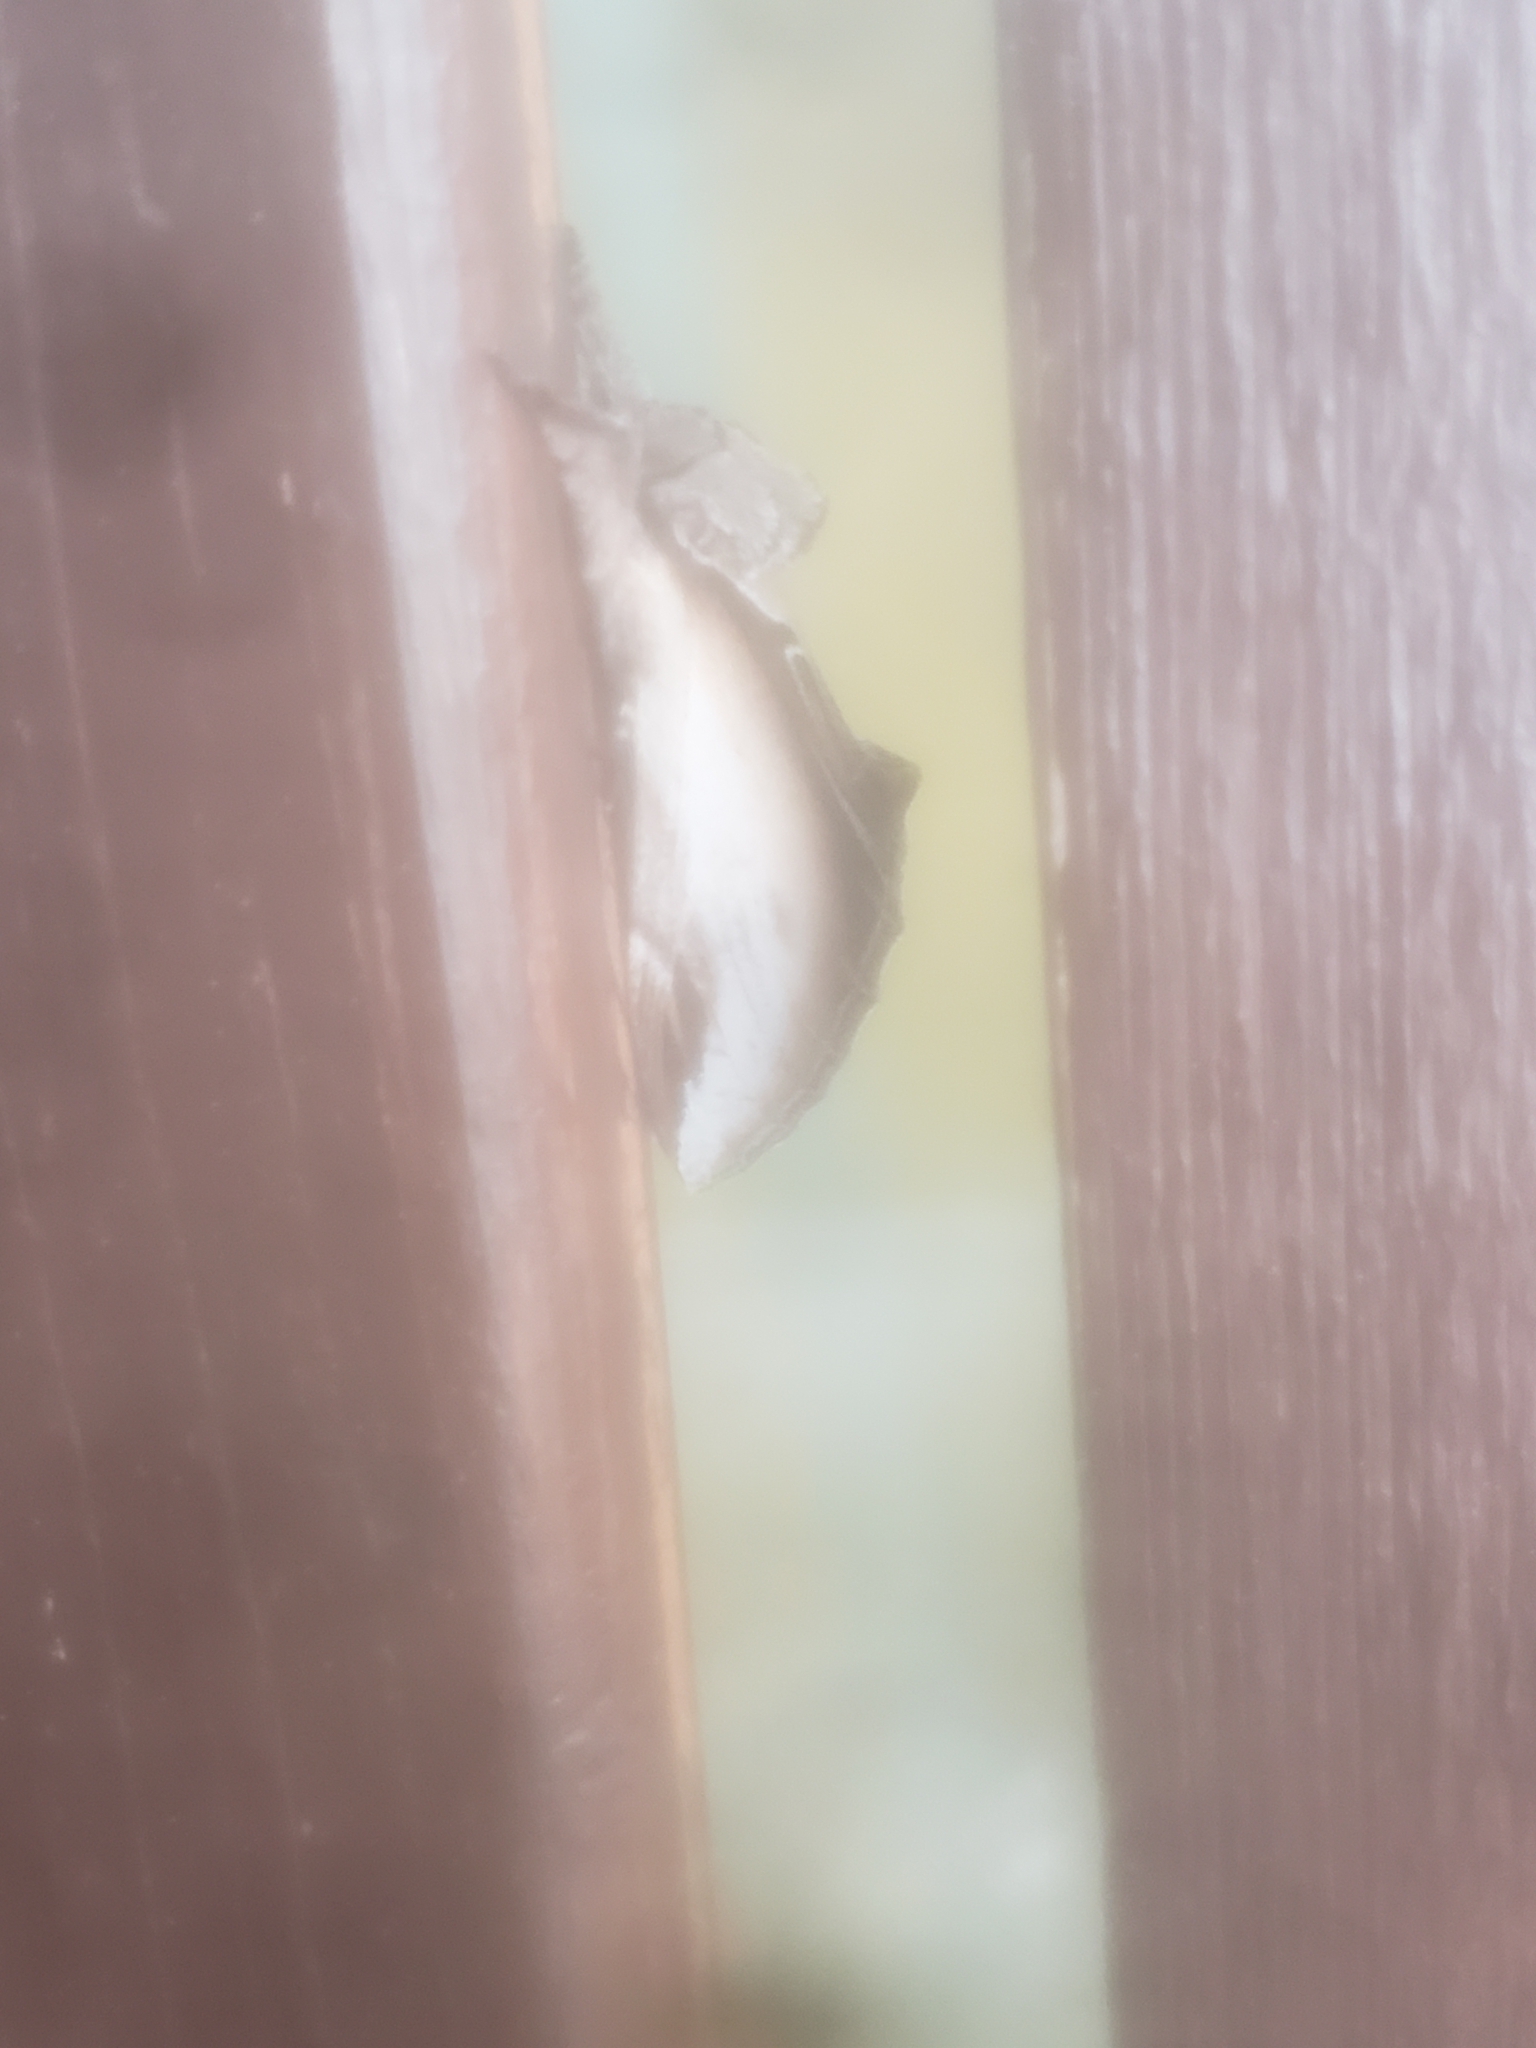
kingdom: Animalia
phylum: Arthropoda
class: Insecta
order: Lepidoptera
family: Notodontidae
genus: Pheosia
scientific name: Pheosia rimosa
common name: Black-rimmed prominent
